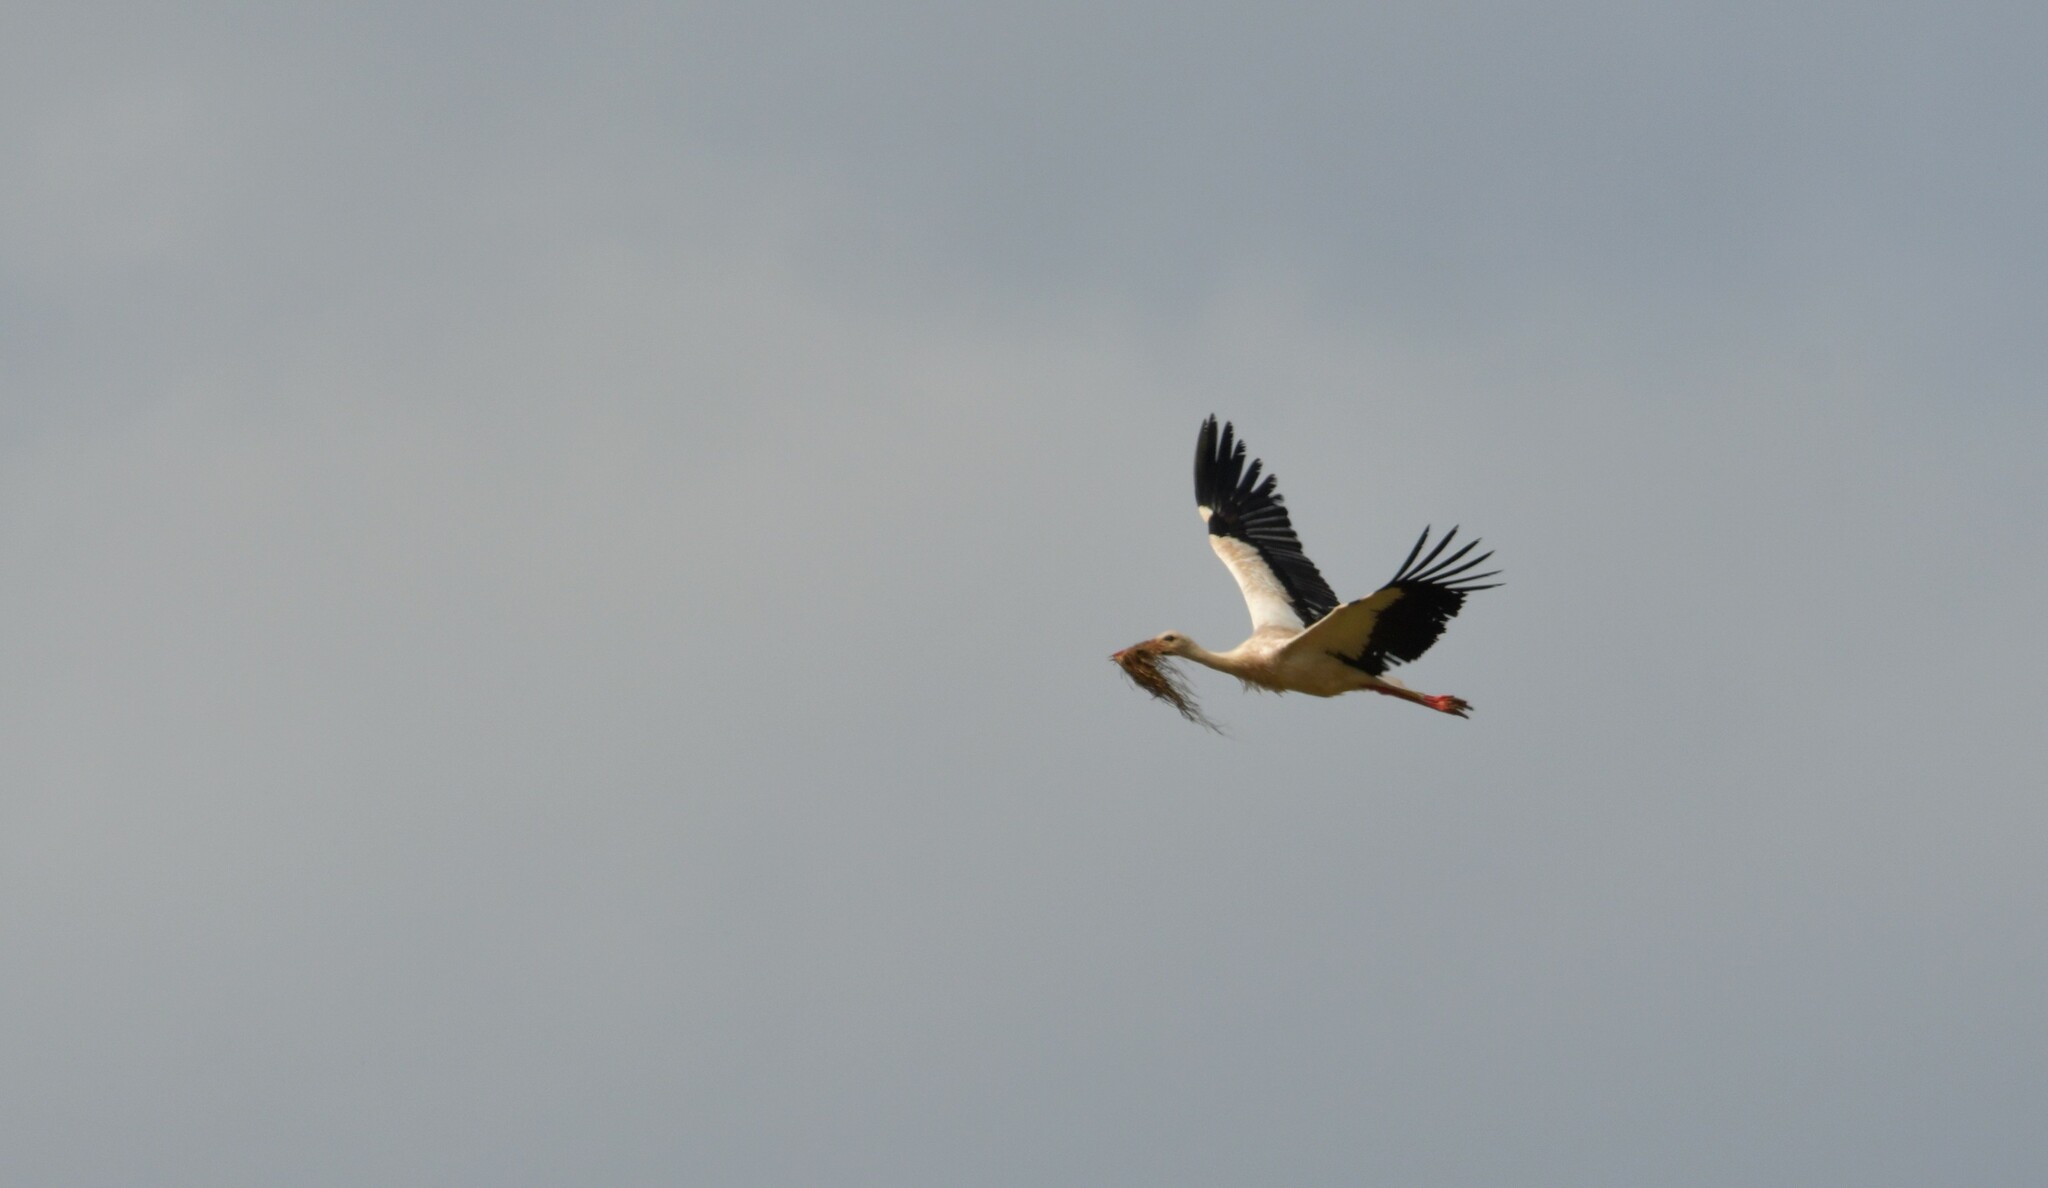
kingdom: Animalia
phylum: Chordata
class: Aves
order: Ciconiiformes
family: Ciconiidae
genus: Ciconia
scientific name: Ciconia ciconia
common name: White stork
